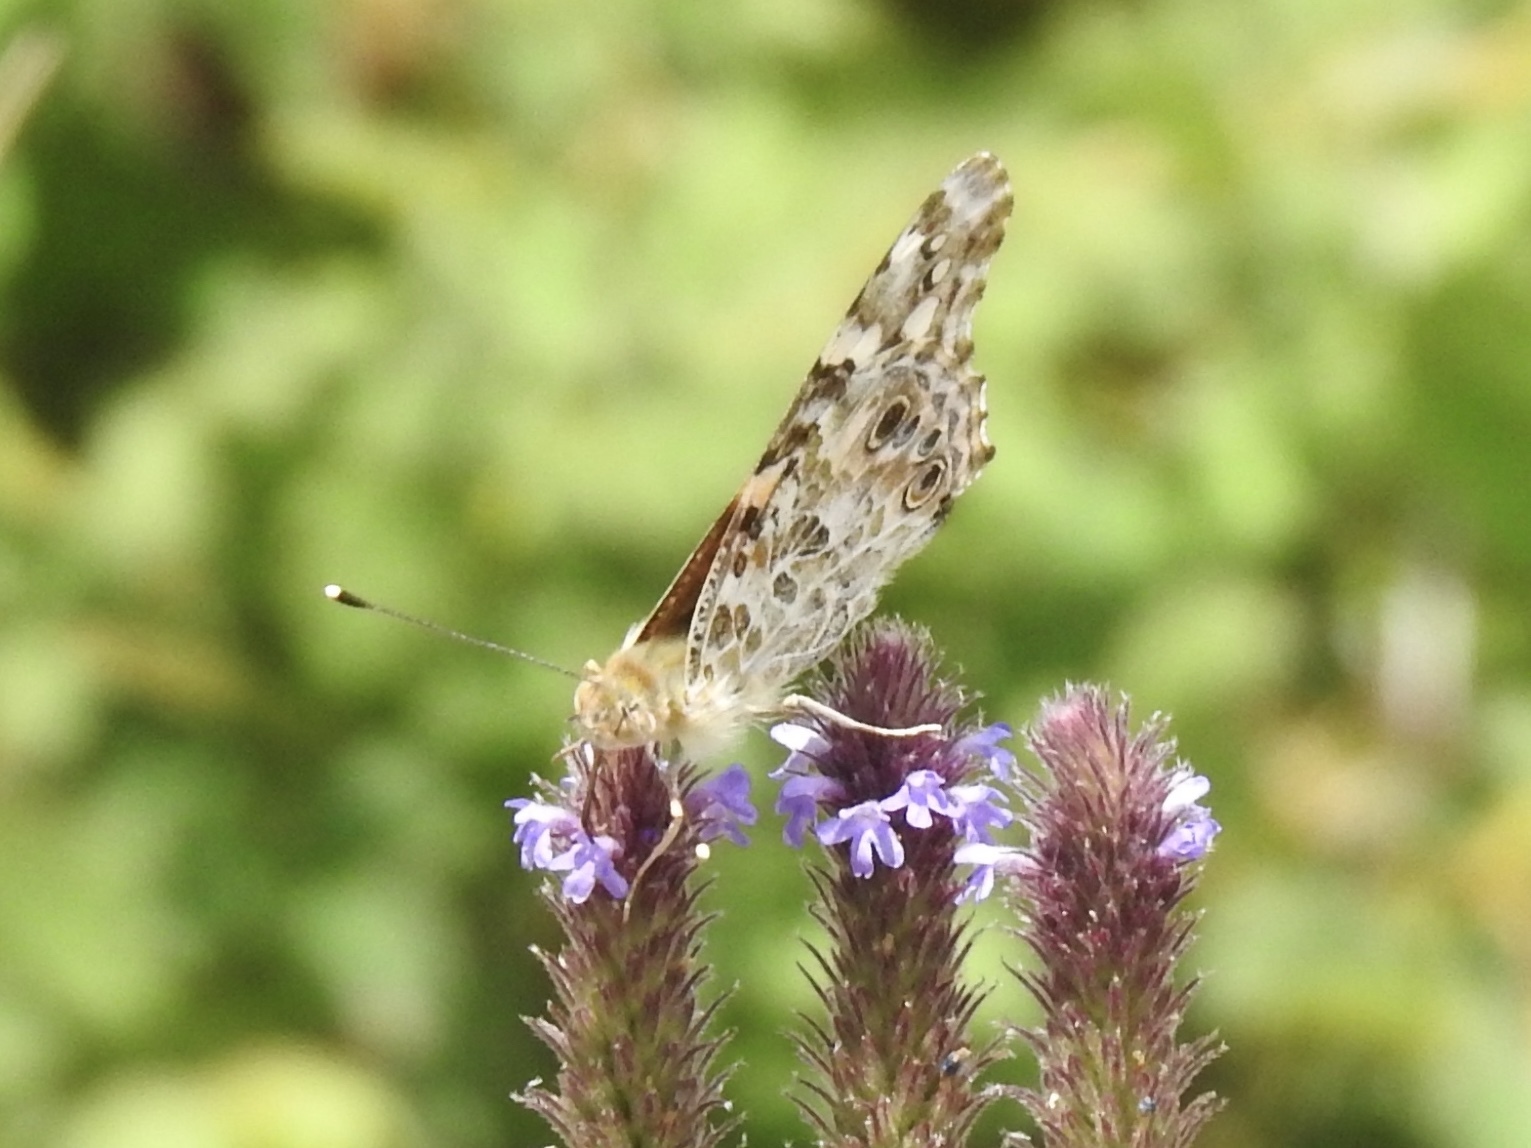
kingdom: Animalia
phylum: Arthropoda
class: Insecta
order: Lepidoptera
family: Nymphalidae
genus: Vanessa
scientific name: Vanessa cardui
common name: Painted lady
